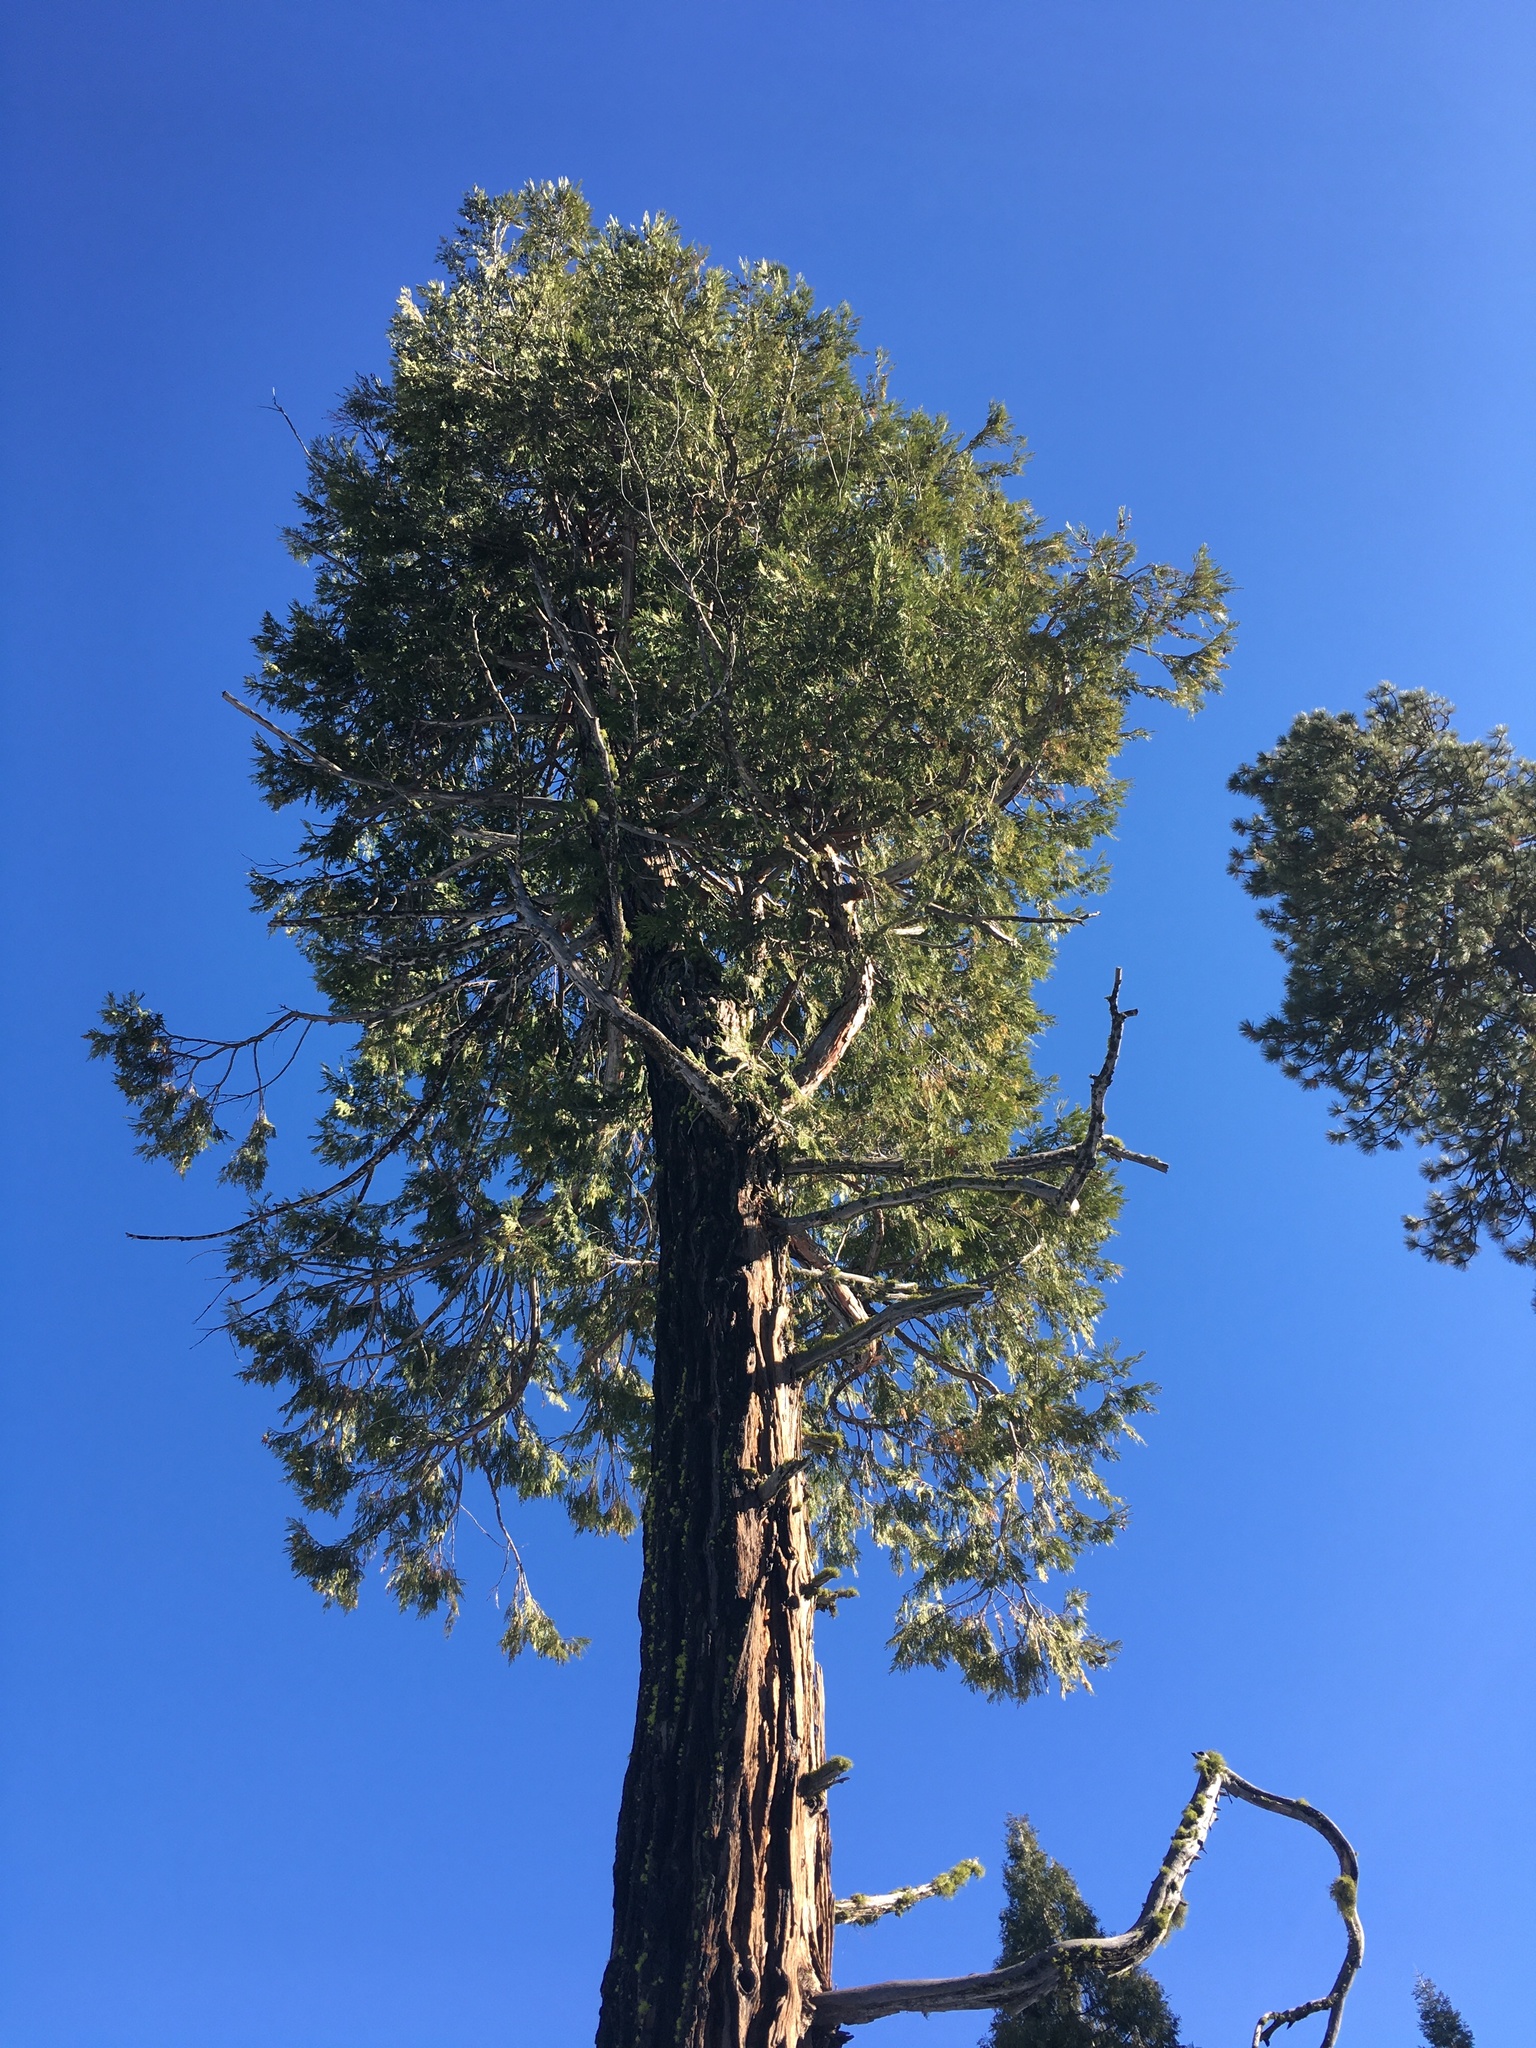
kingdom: Plantae
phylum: Tracheophyta
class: Pinopsida
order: Pinales
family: Cupressaceae
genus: Calocedrus
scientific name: Calocedrus decurrens
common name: Californian incense-cedar
